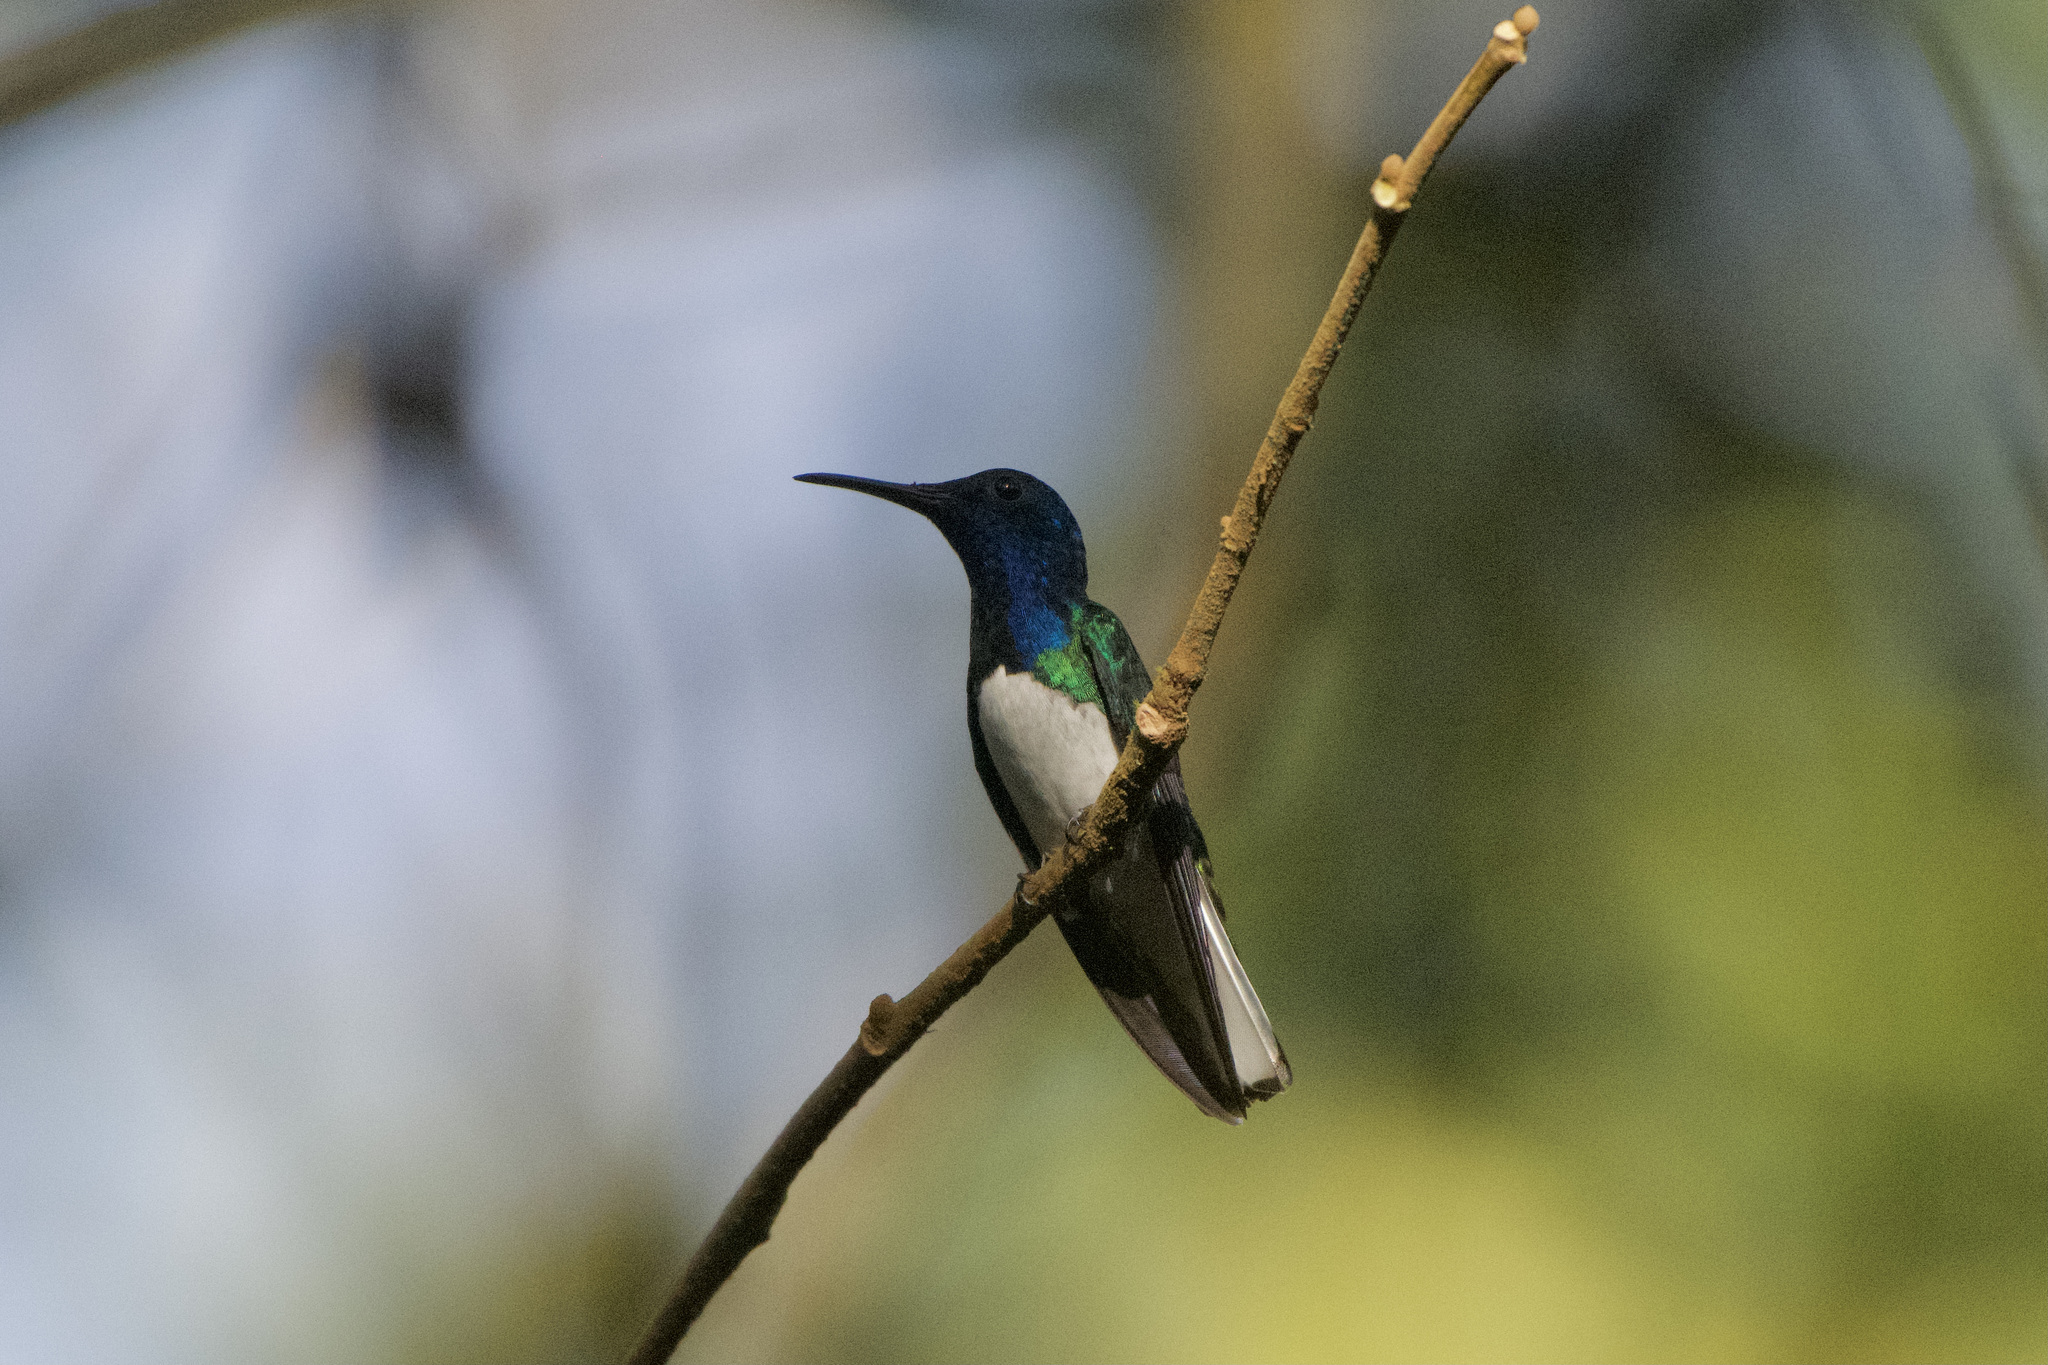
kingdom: Animalia
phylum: Chordata
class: Aves
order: Apodiformes
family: Trochilidae
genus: Florisuga
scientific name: Florisuga mellivora
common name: White-necked jacobin
